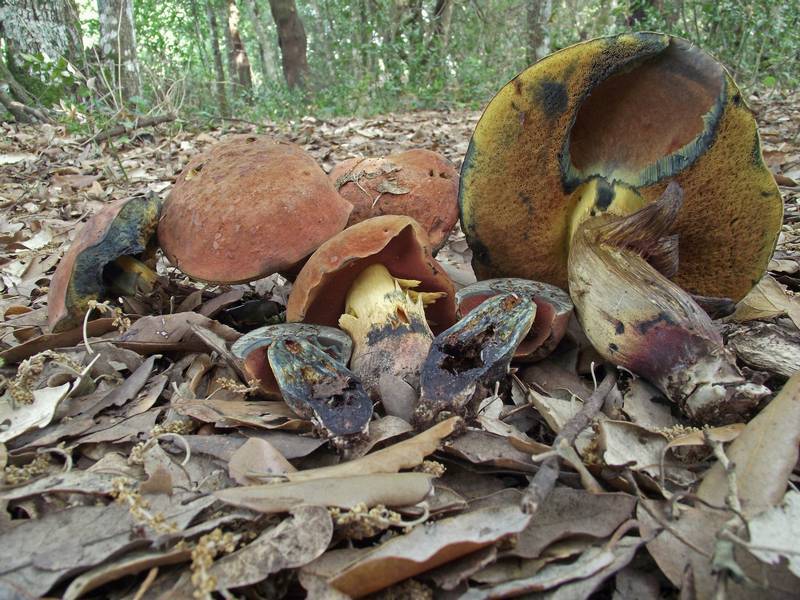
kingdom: Fungi
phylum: Basidiomycota
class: Agaricomycetes
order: Boletales
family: Boletaceae
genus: Suillellus
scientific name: Suillellus queletii
